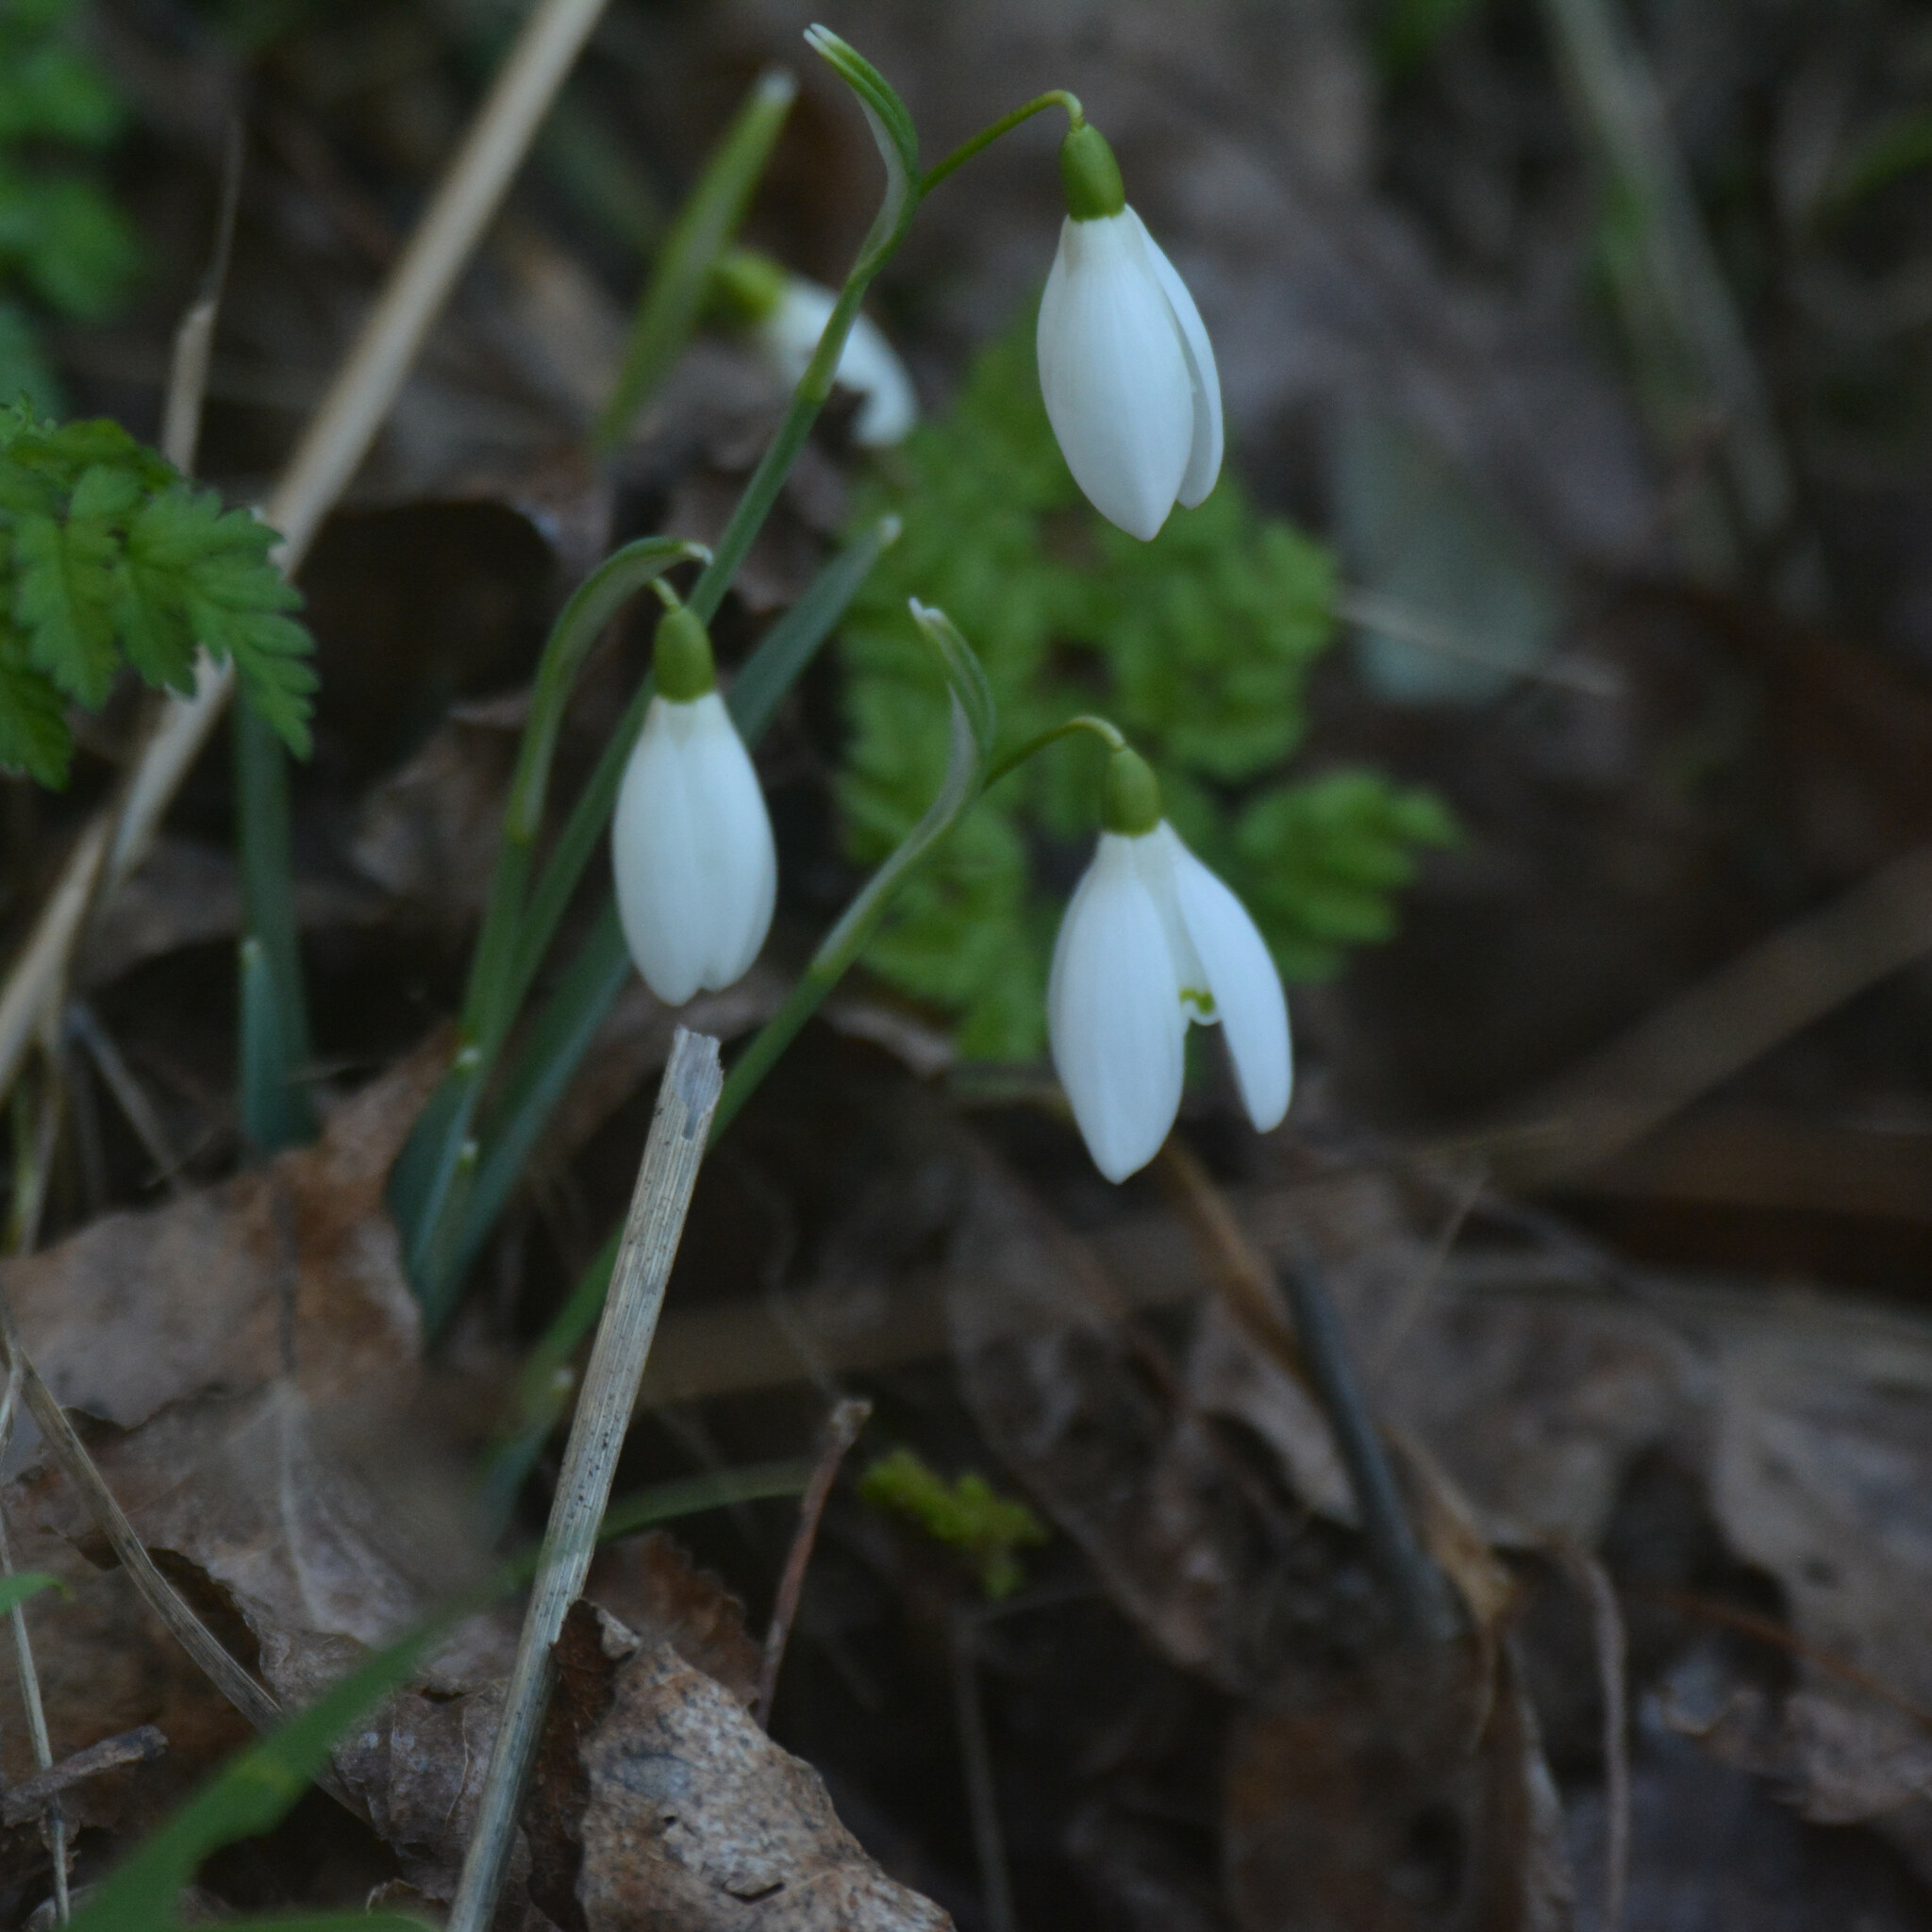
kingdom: Plantae
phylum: Tracheophyta
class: Liliopsida
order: Asparagales
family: Amaryllidaceae
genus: Galanthus
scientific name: Galanthus nivalis
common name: Snowdrop
